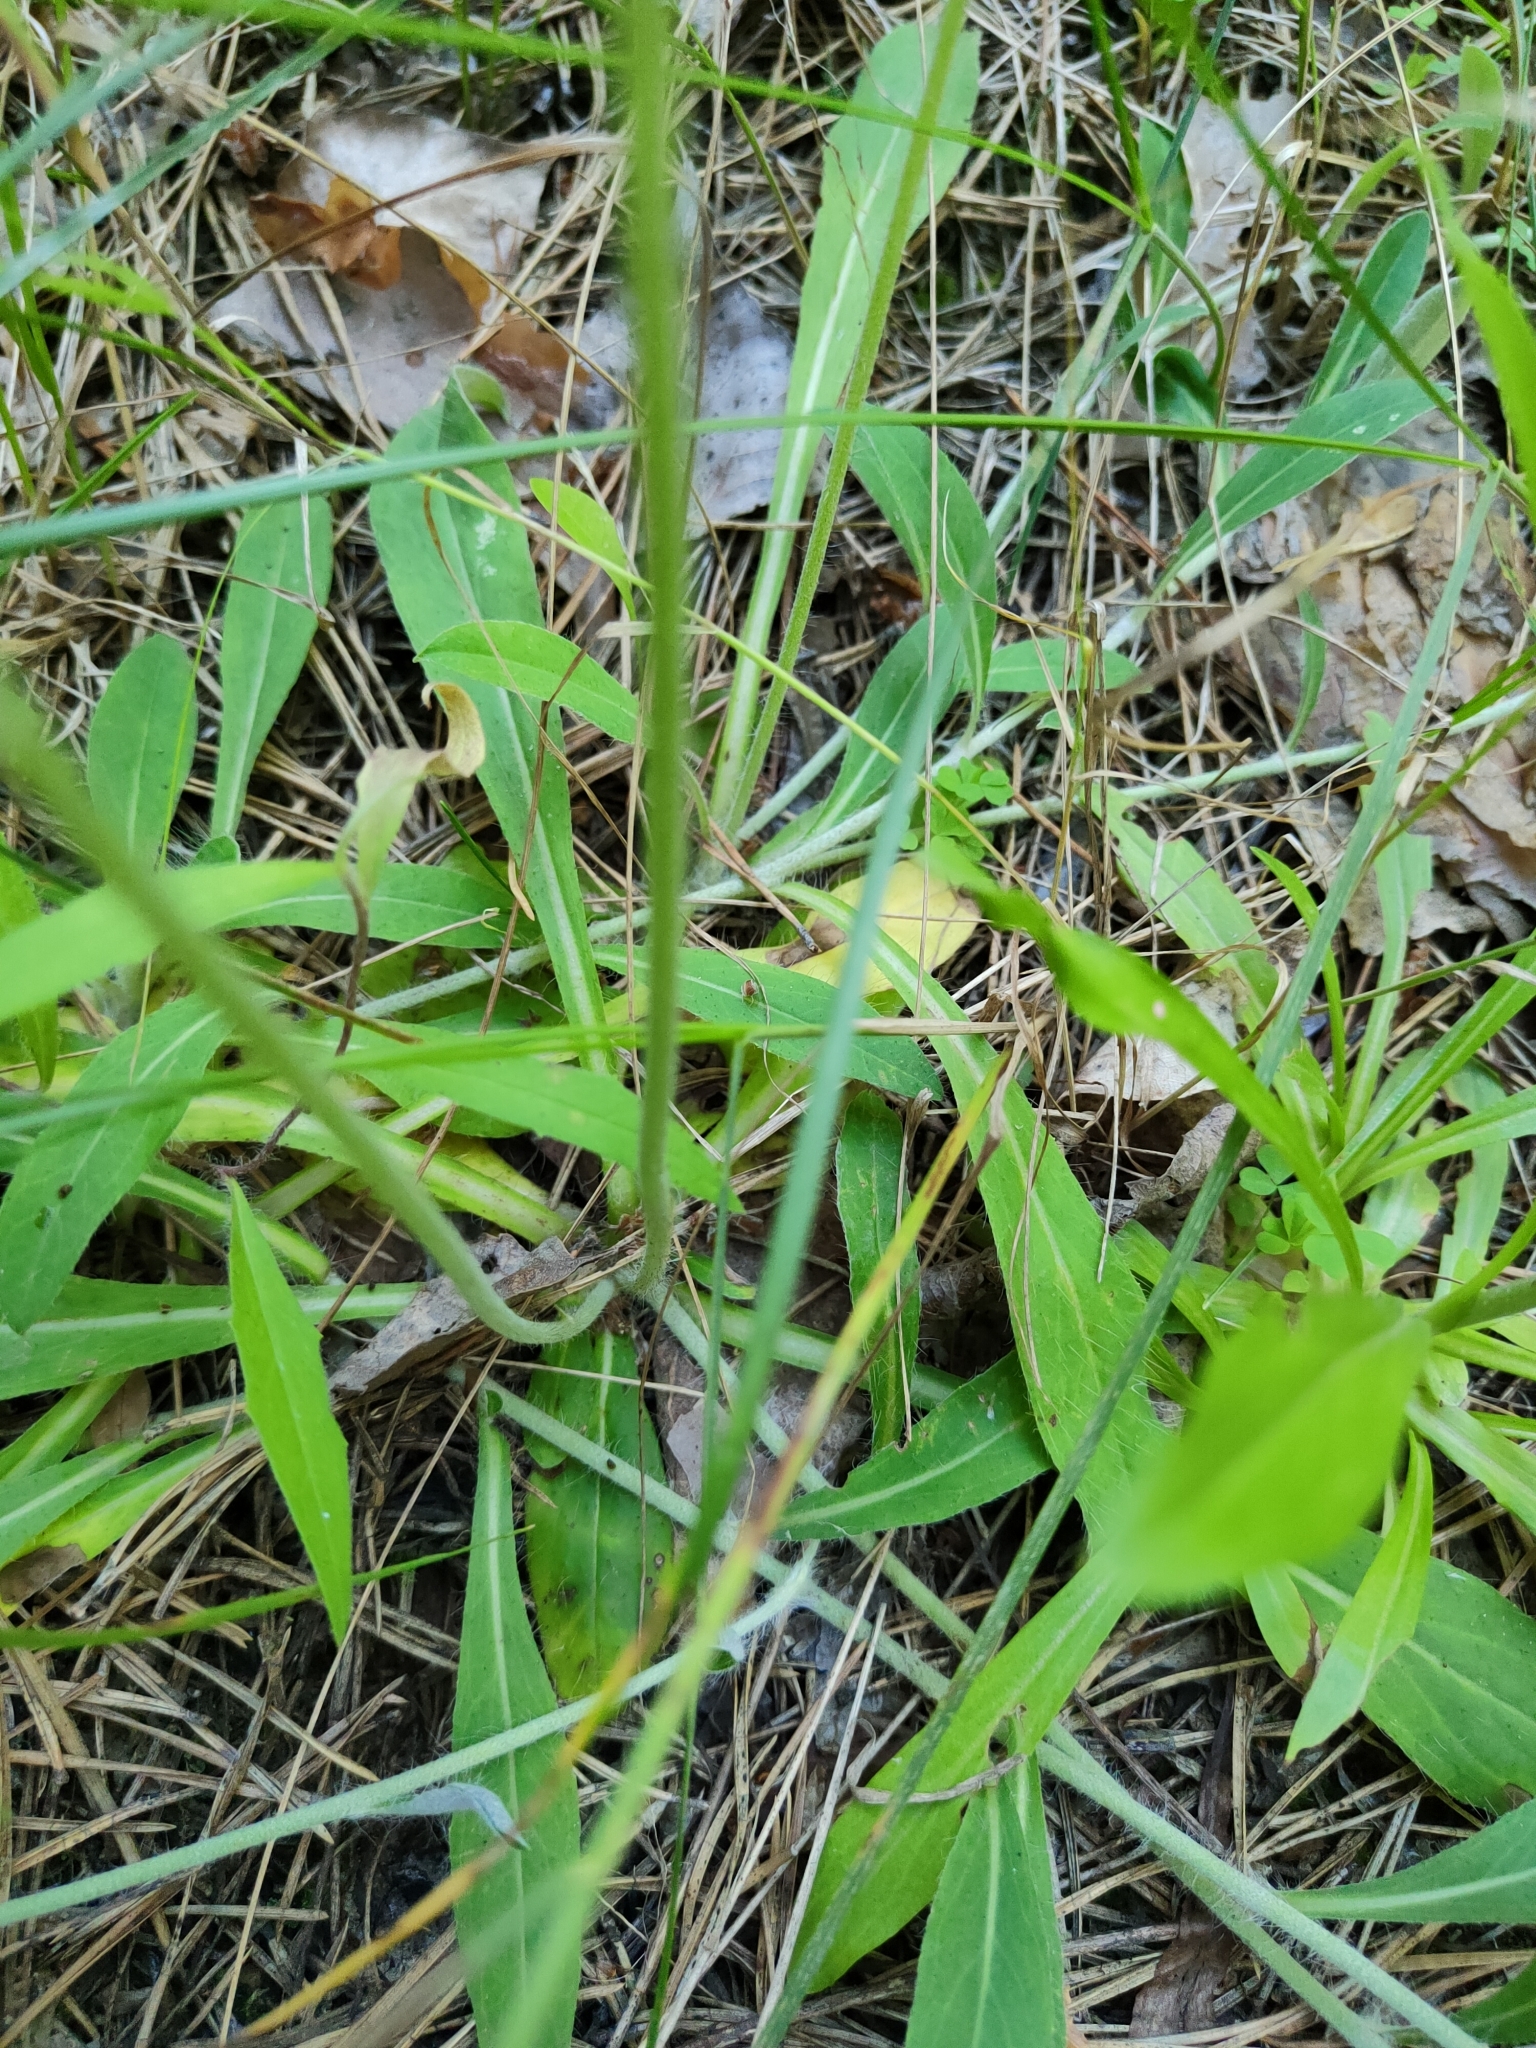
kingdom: Plantae
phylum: Tracheophyta
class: Magnoliopsida
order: Asterales
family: Asteraceae
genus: Pilosella
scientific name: Pilosella officinarum
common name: Mouse-ear hawkweed
